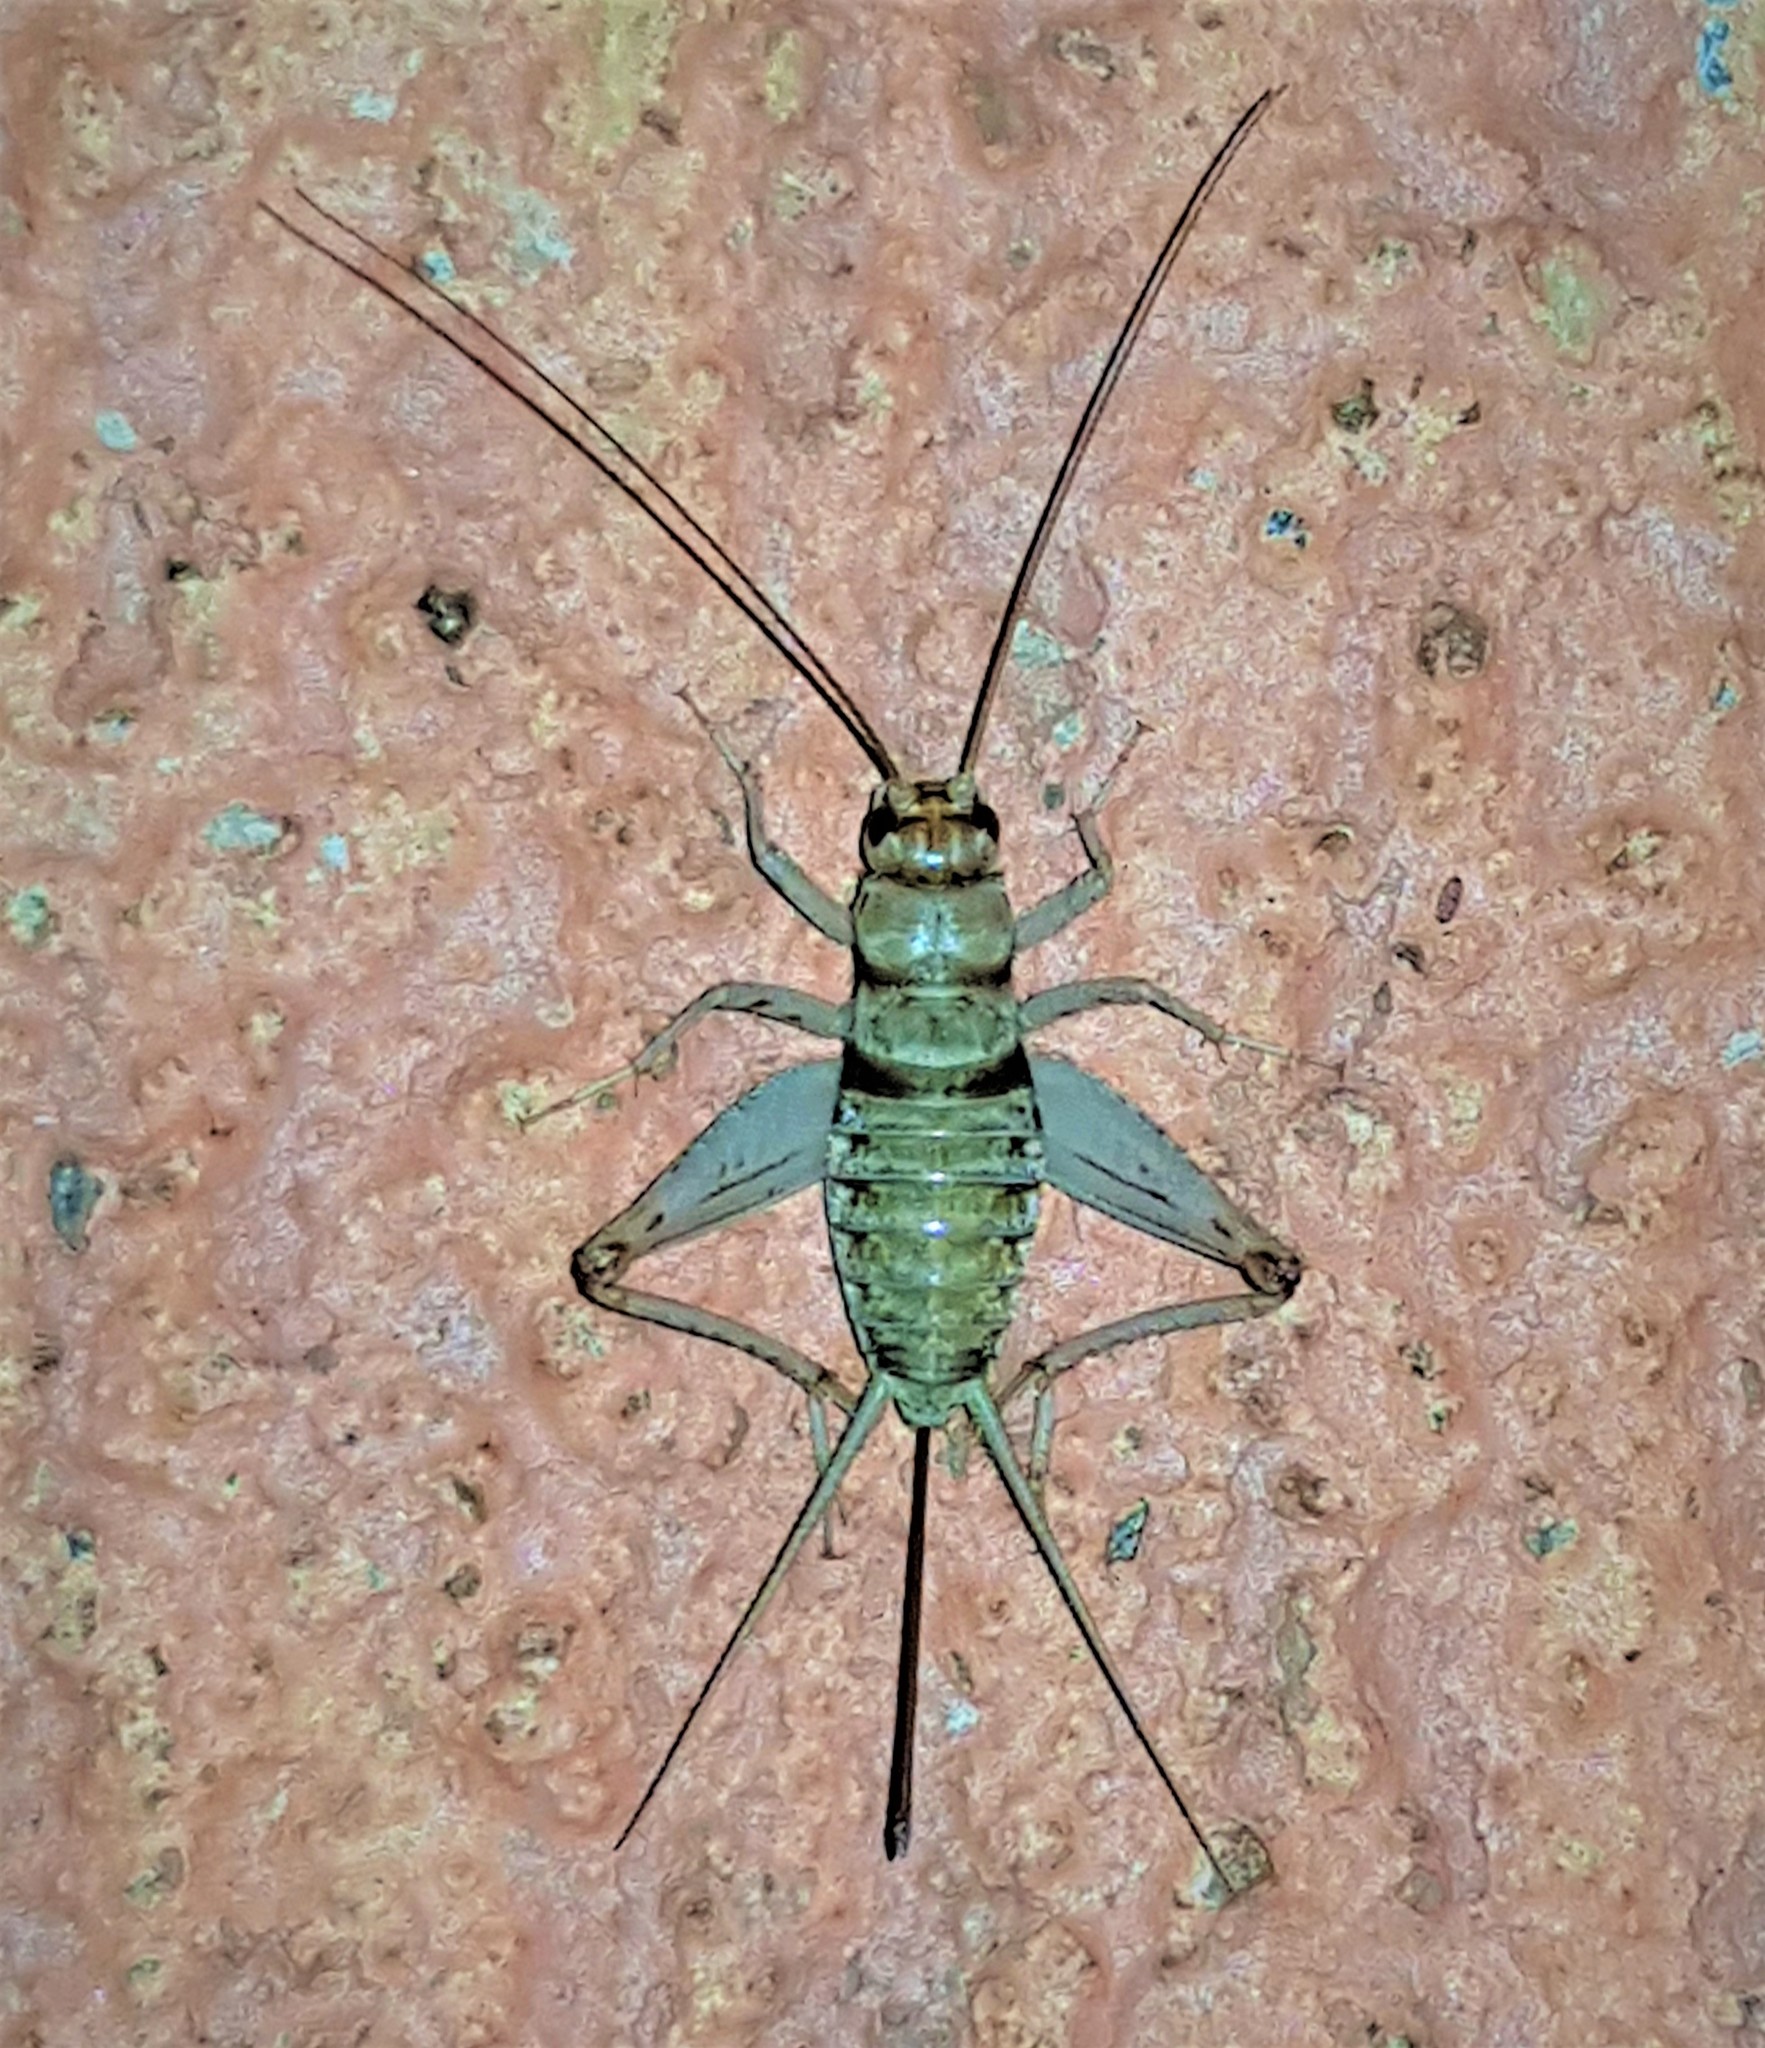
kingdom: Animalia
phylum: Arthropoda
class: Insecta
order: Orthoptera
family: Gryllidae
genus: Gryllodes
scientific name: Gryllodes sigillatus
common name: Tropical house cricket
